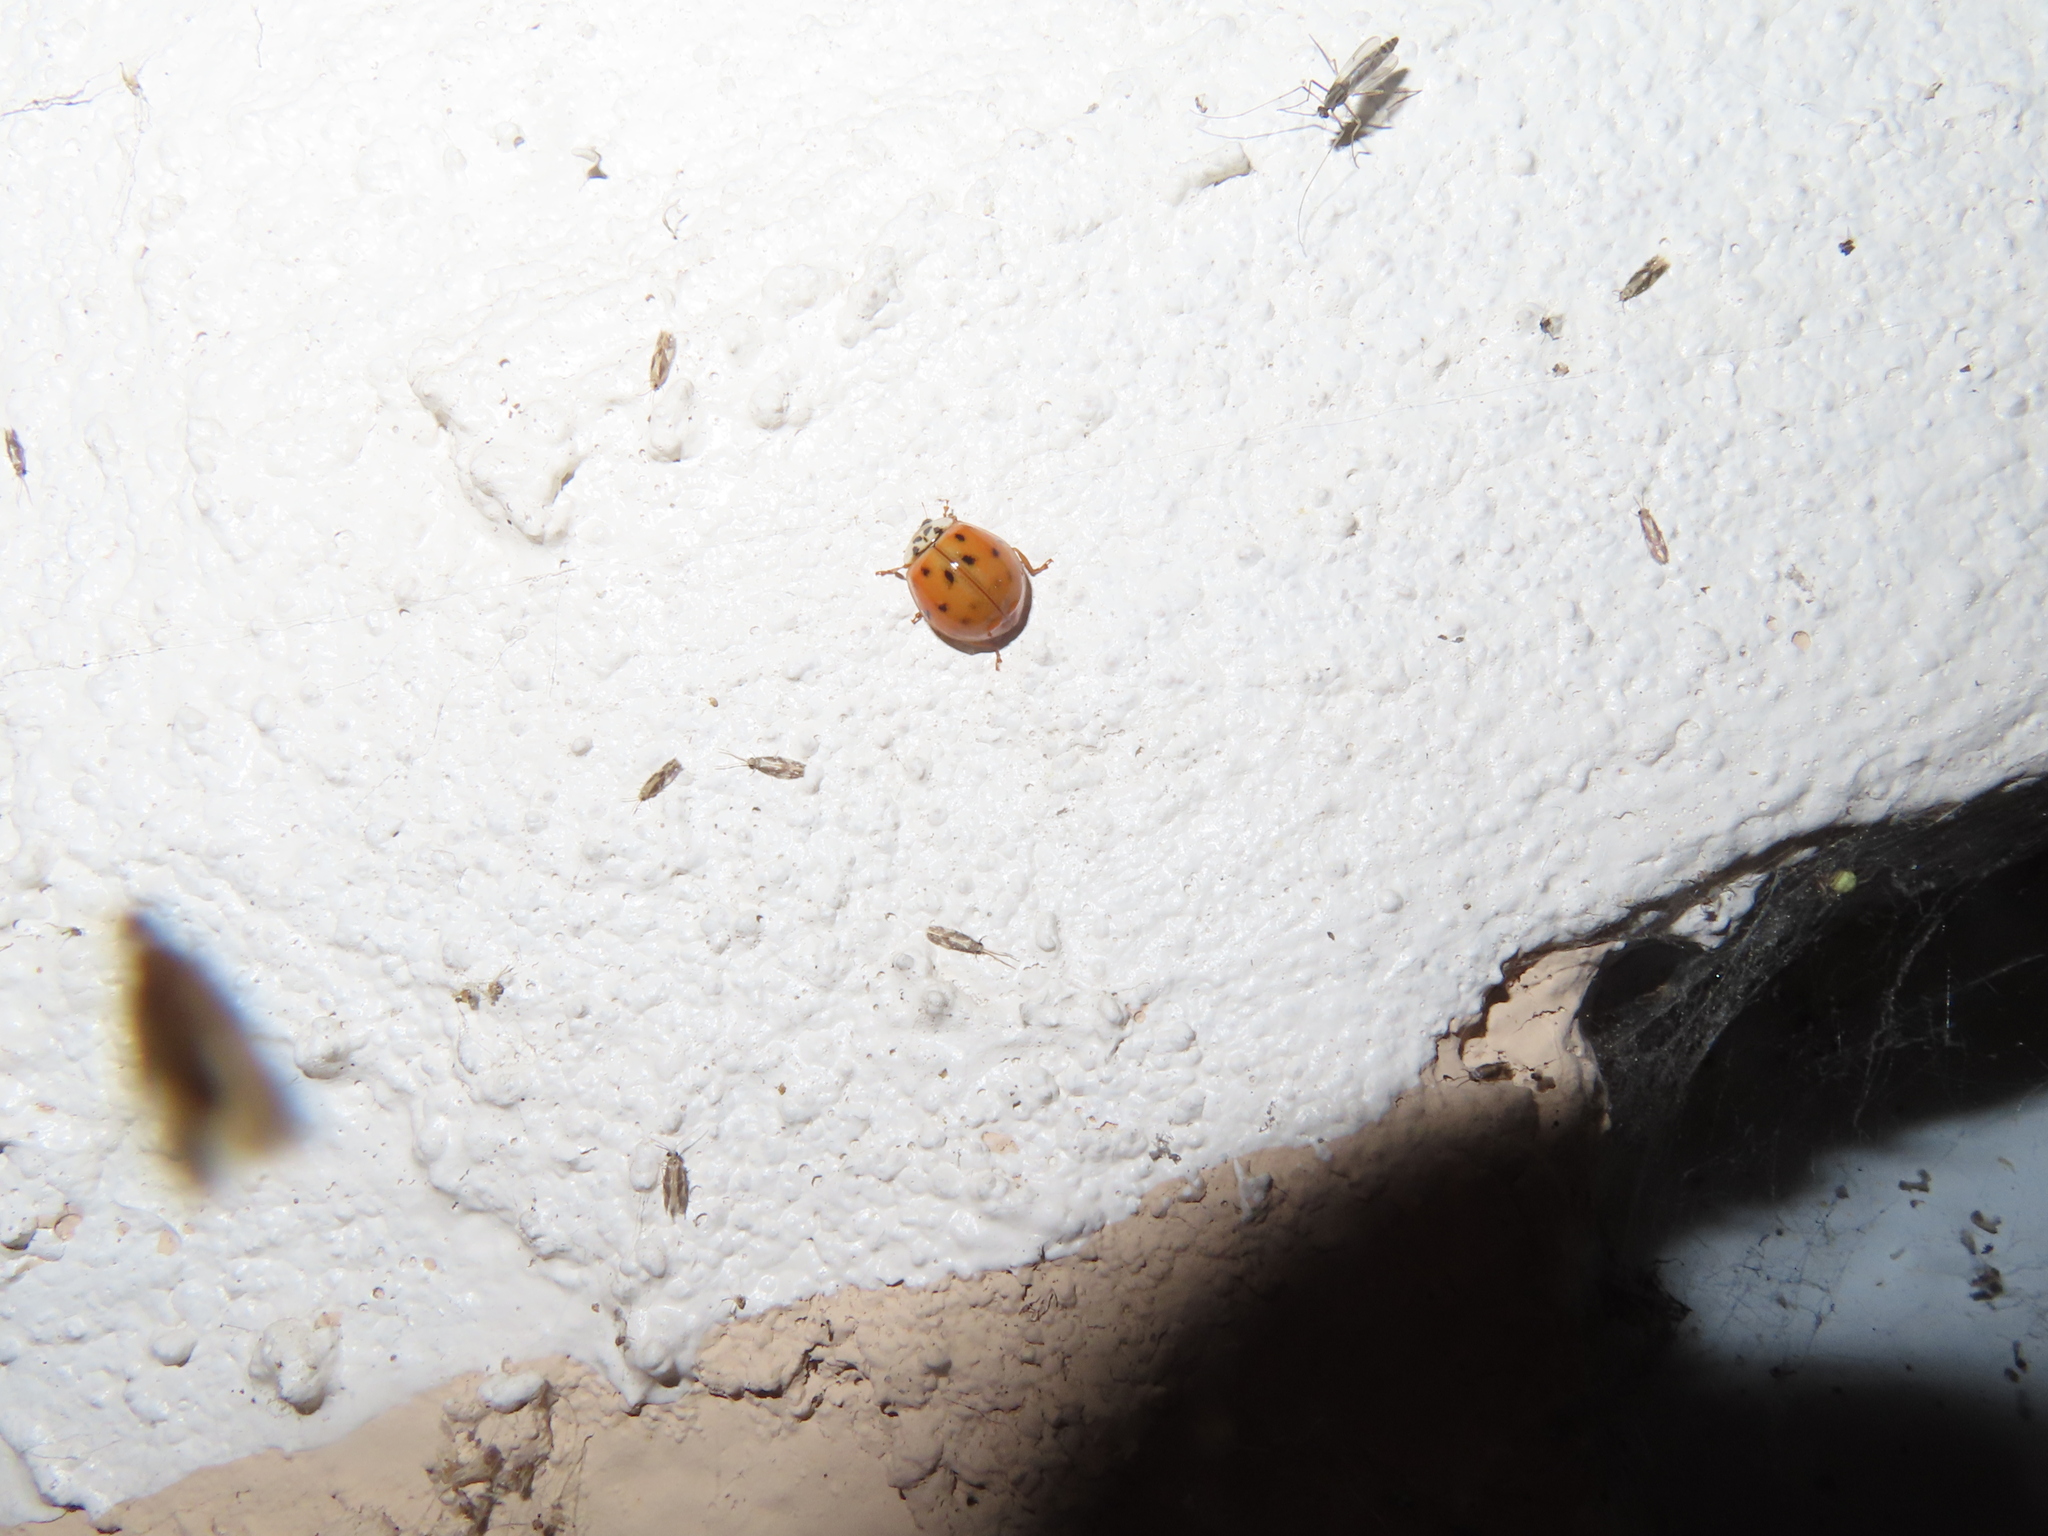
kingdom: Animalia
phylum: Arthropoda
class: Insecta
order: Coleoptera
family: Coccinellidae
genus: Harmonia
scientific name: Harmonia axyridis
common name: Harlequin ladybird
